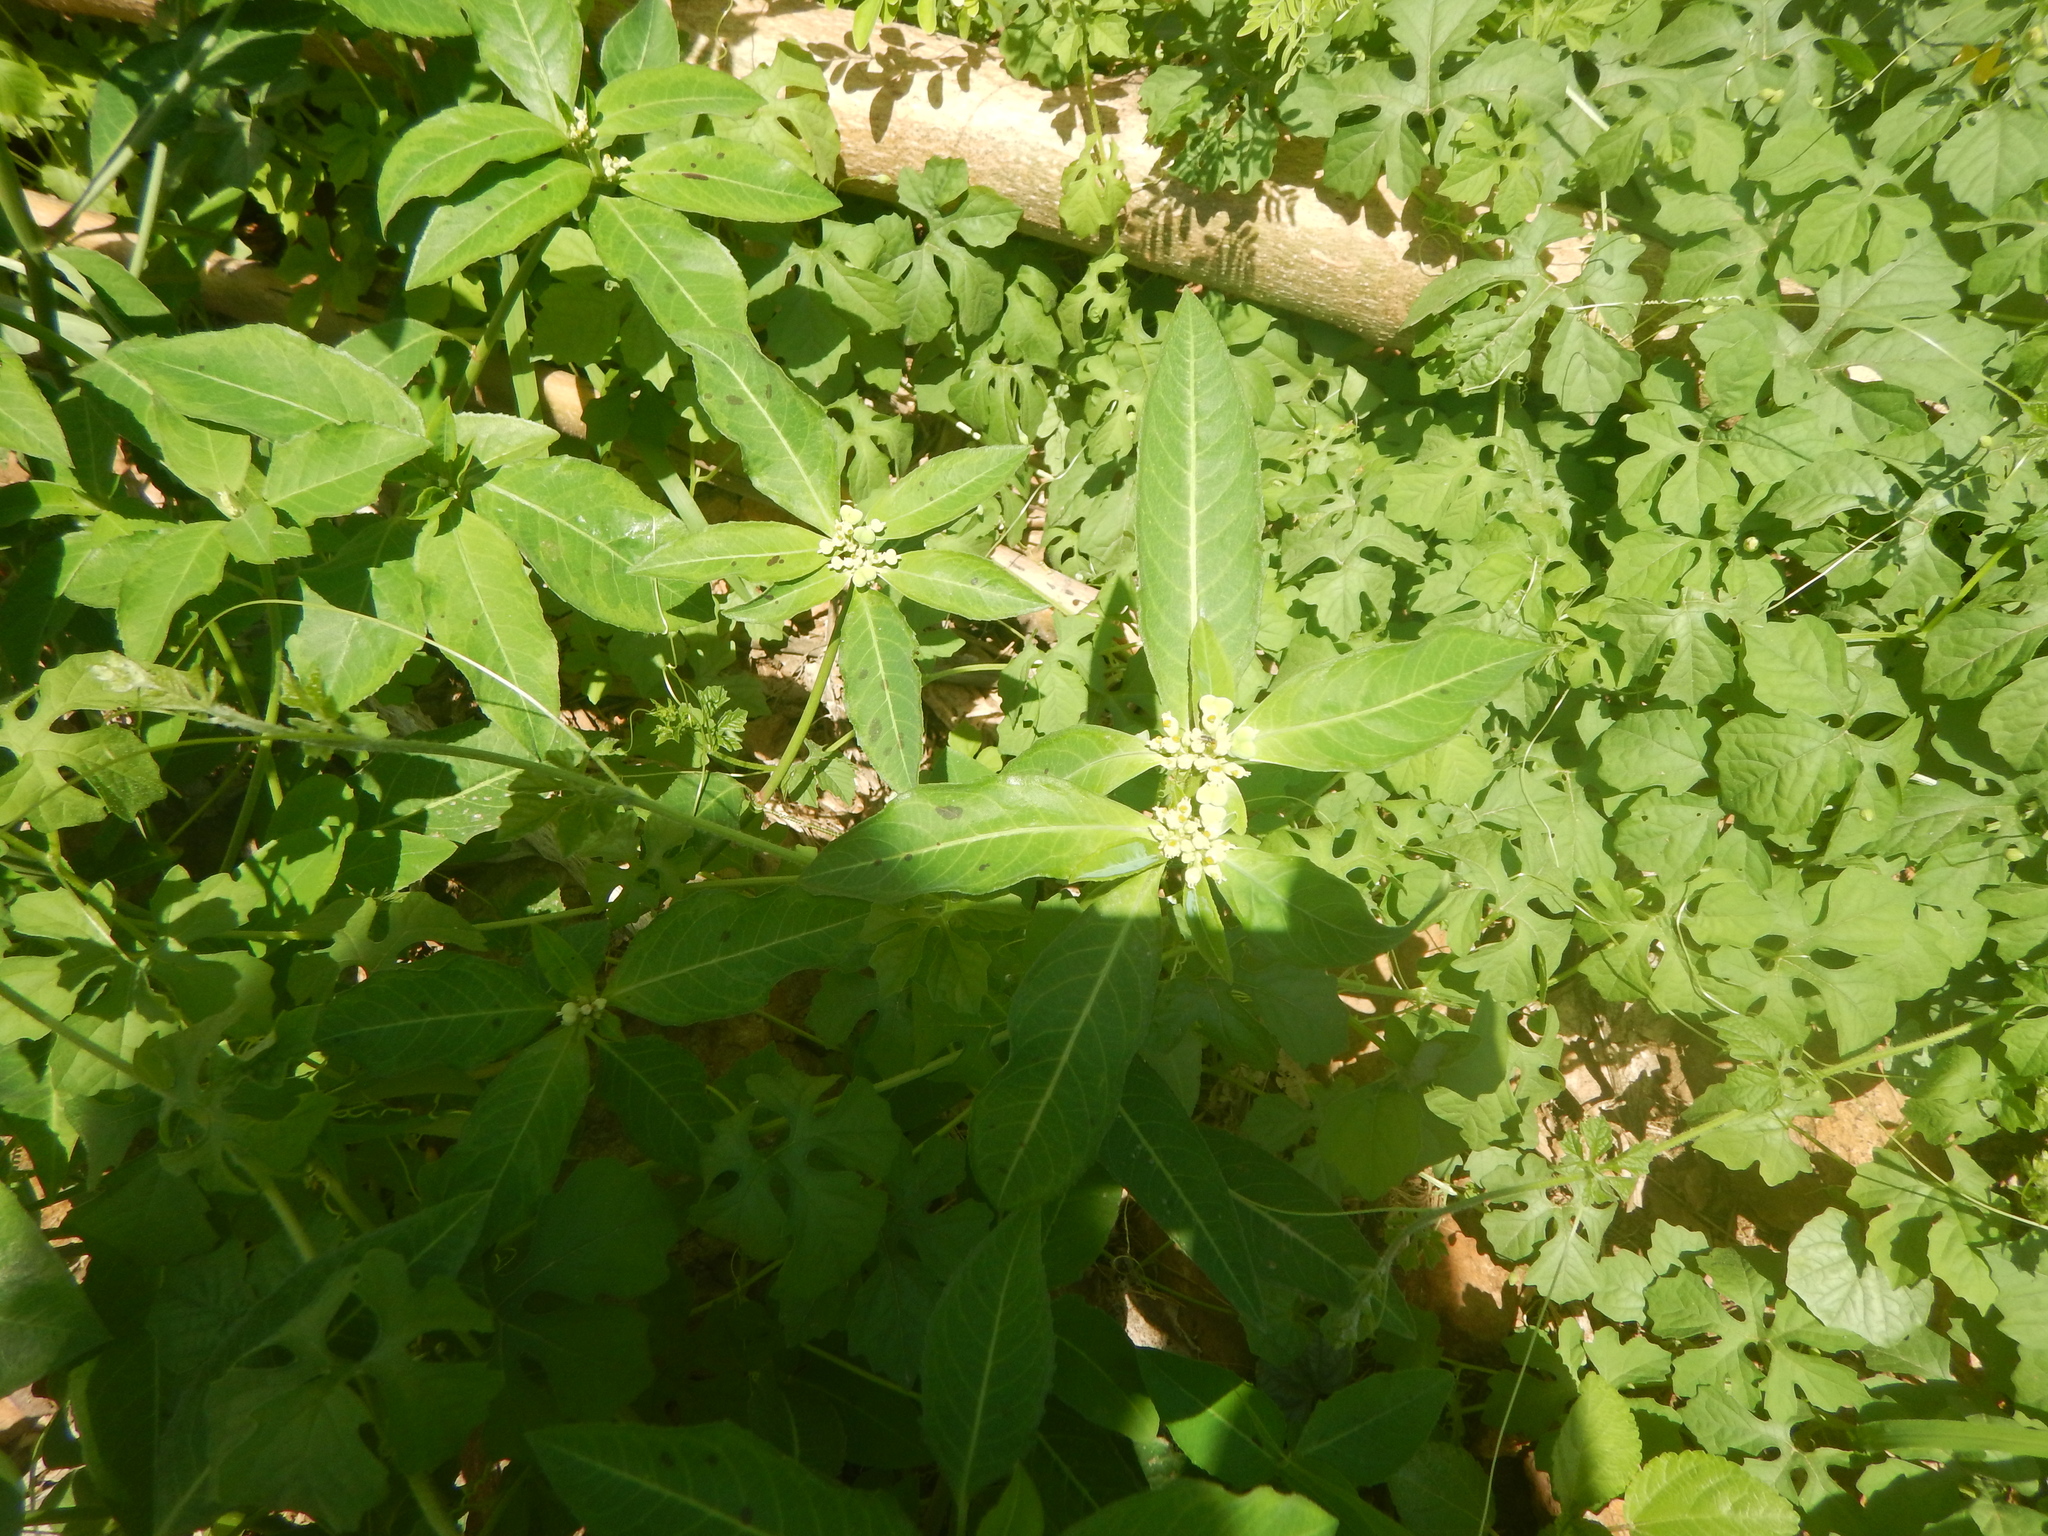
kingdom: Plantae
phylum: Tracheophyta
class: Magnoliopsida
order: Malpighiales
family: Euphorbiaceae
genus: Euphorbia
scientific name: Euphorbia heterophylla
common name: Mexican fireplant
